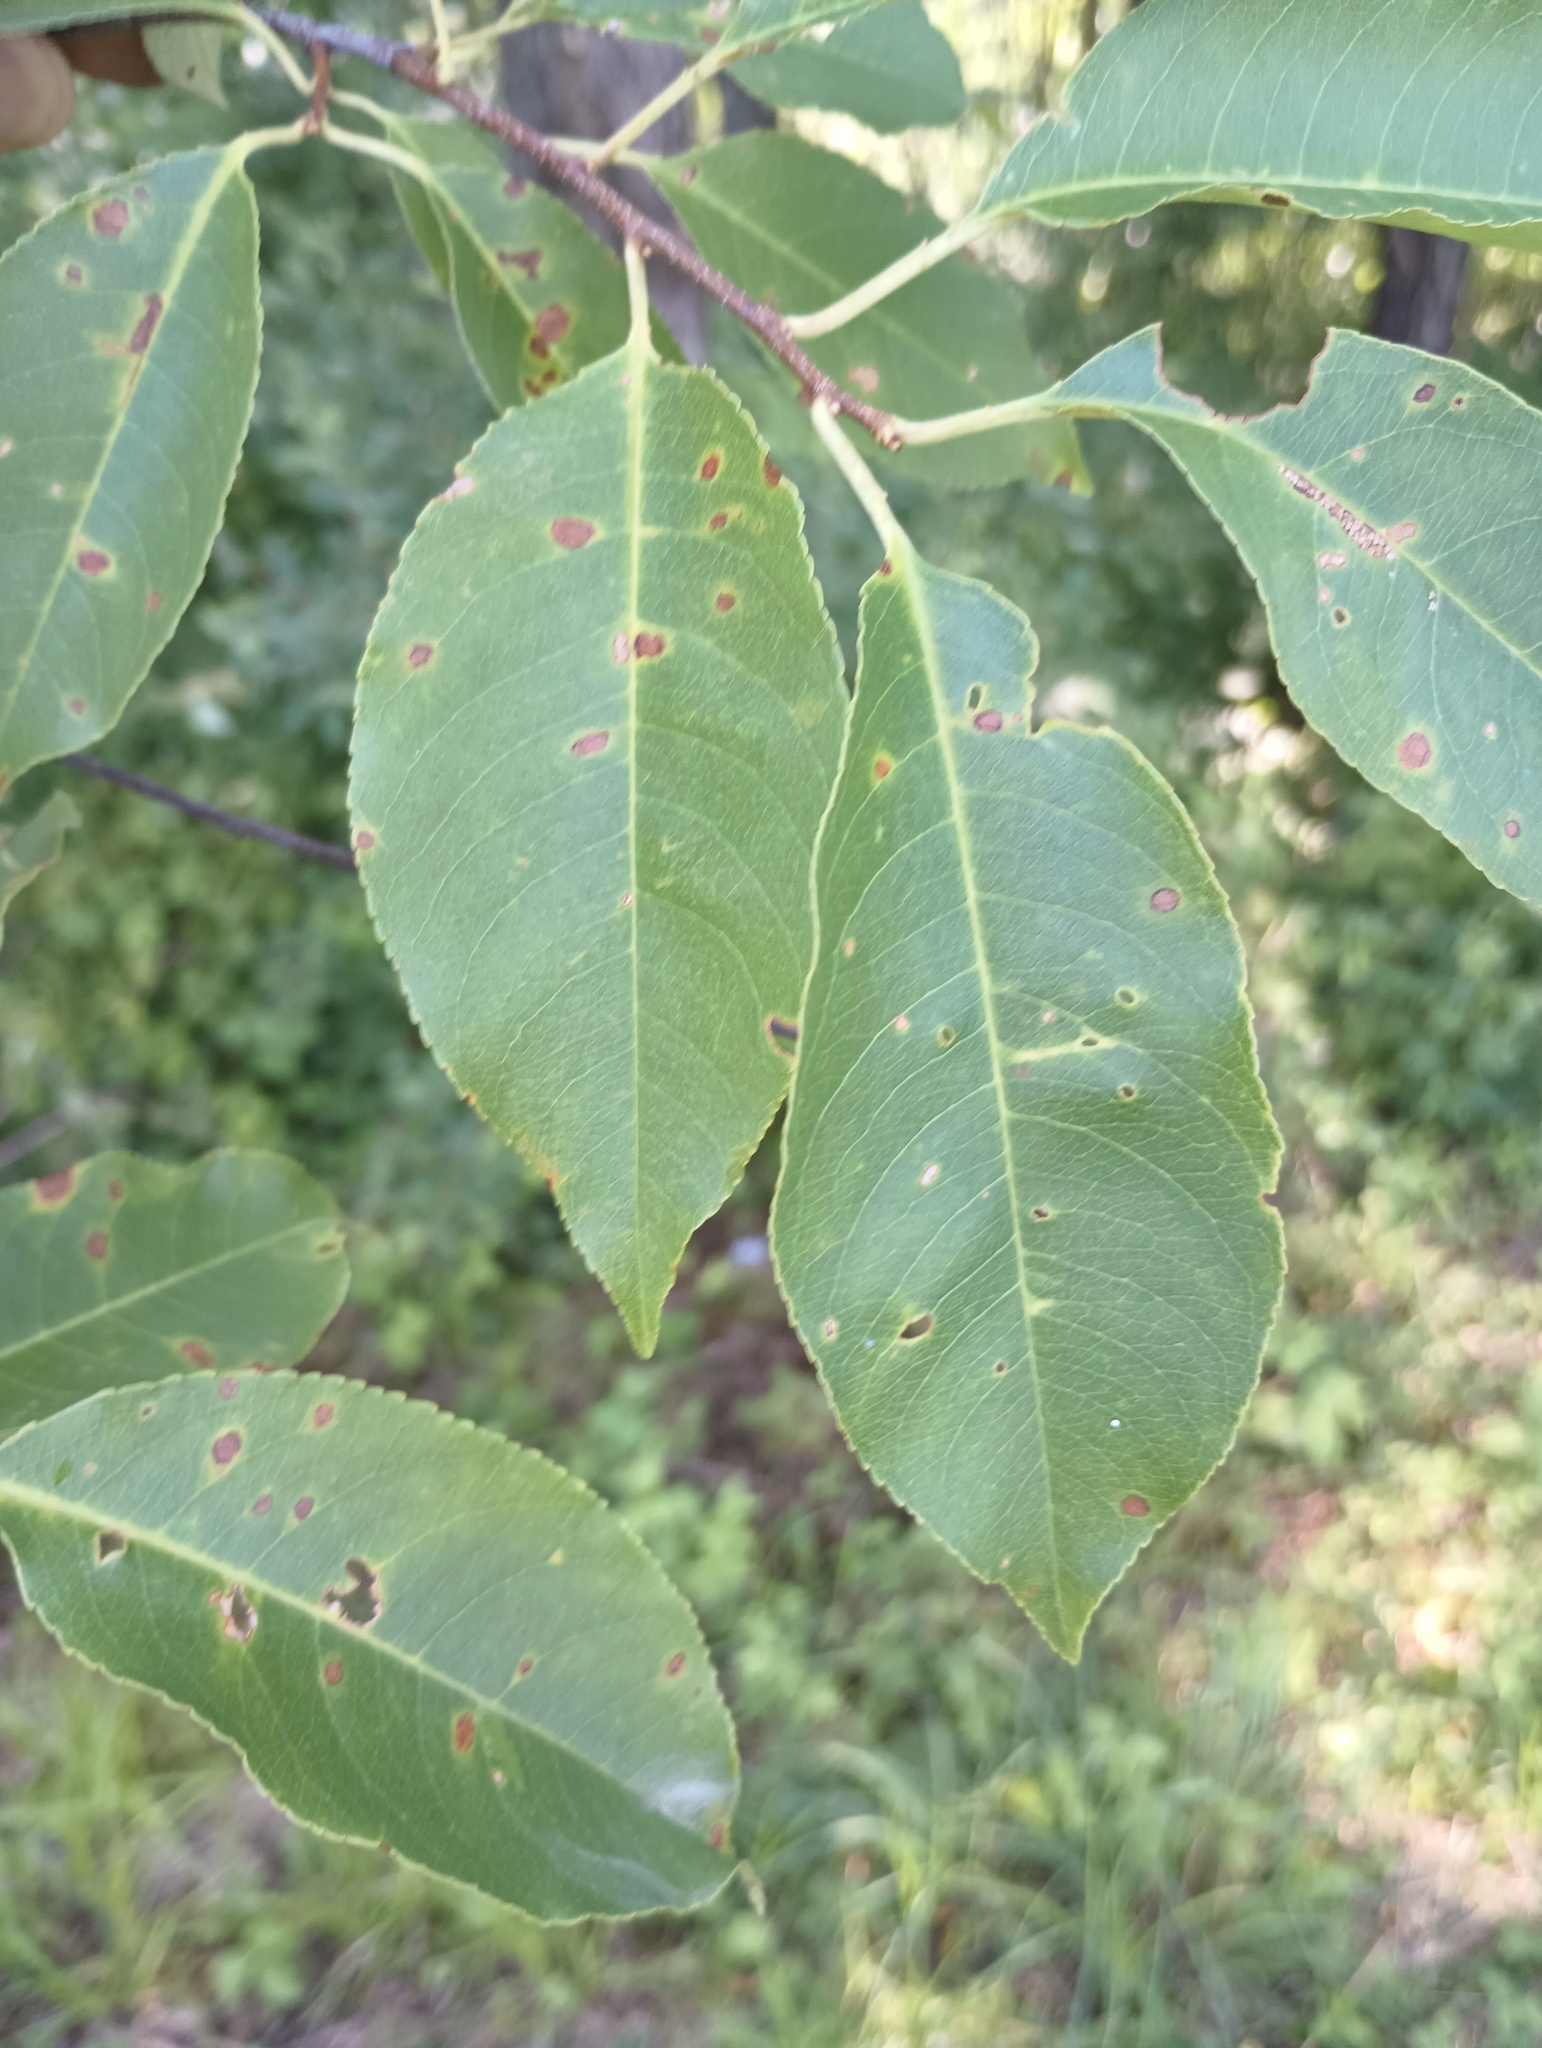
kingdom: Plantae
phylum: Tracheophyta
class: Magnoliopsida
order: Rosales
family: Rosaceae
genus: Prunus
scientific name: Prunus serotina
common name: Black cherry
